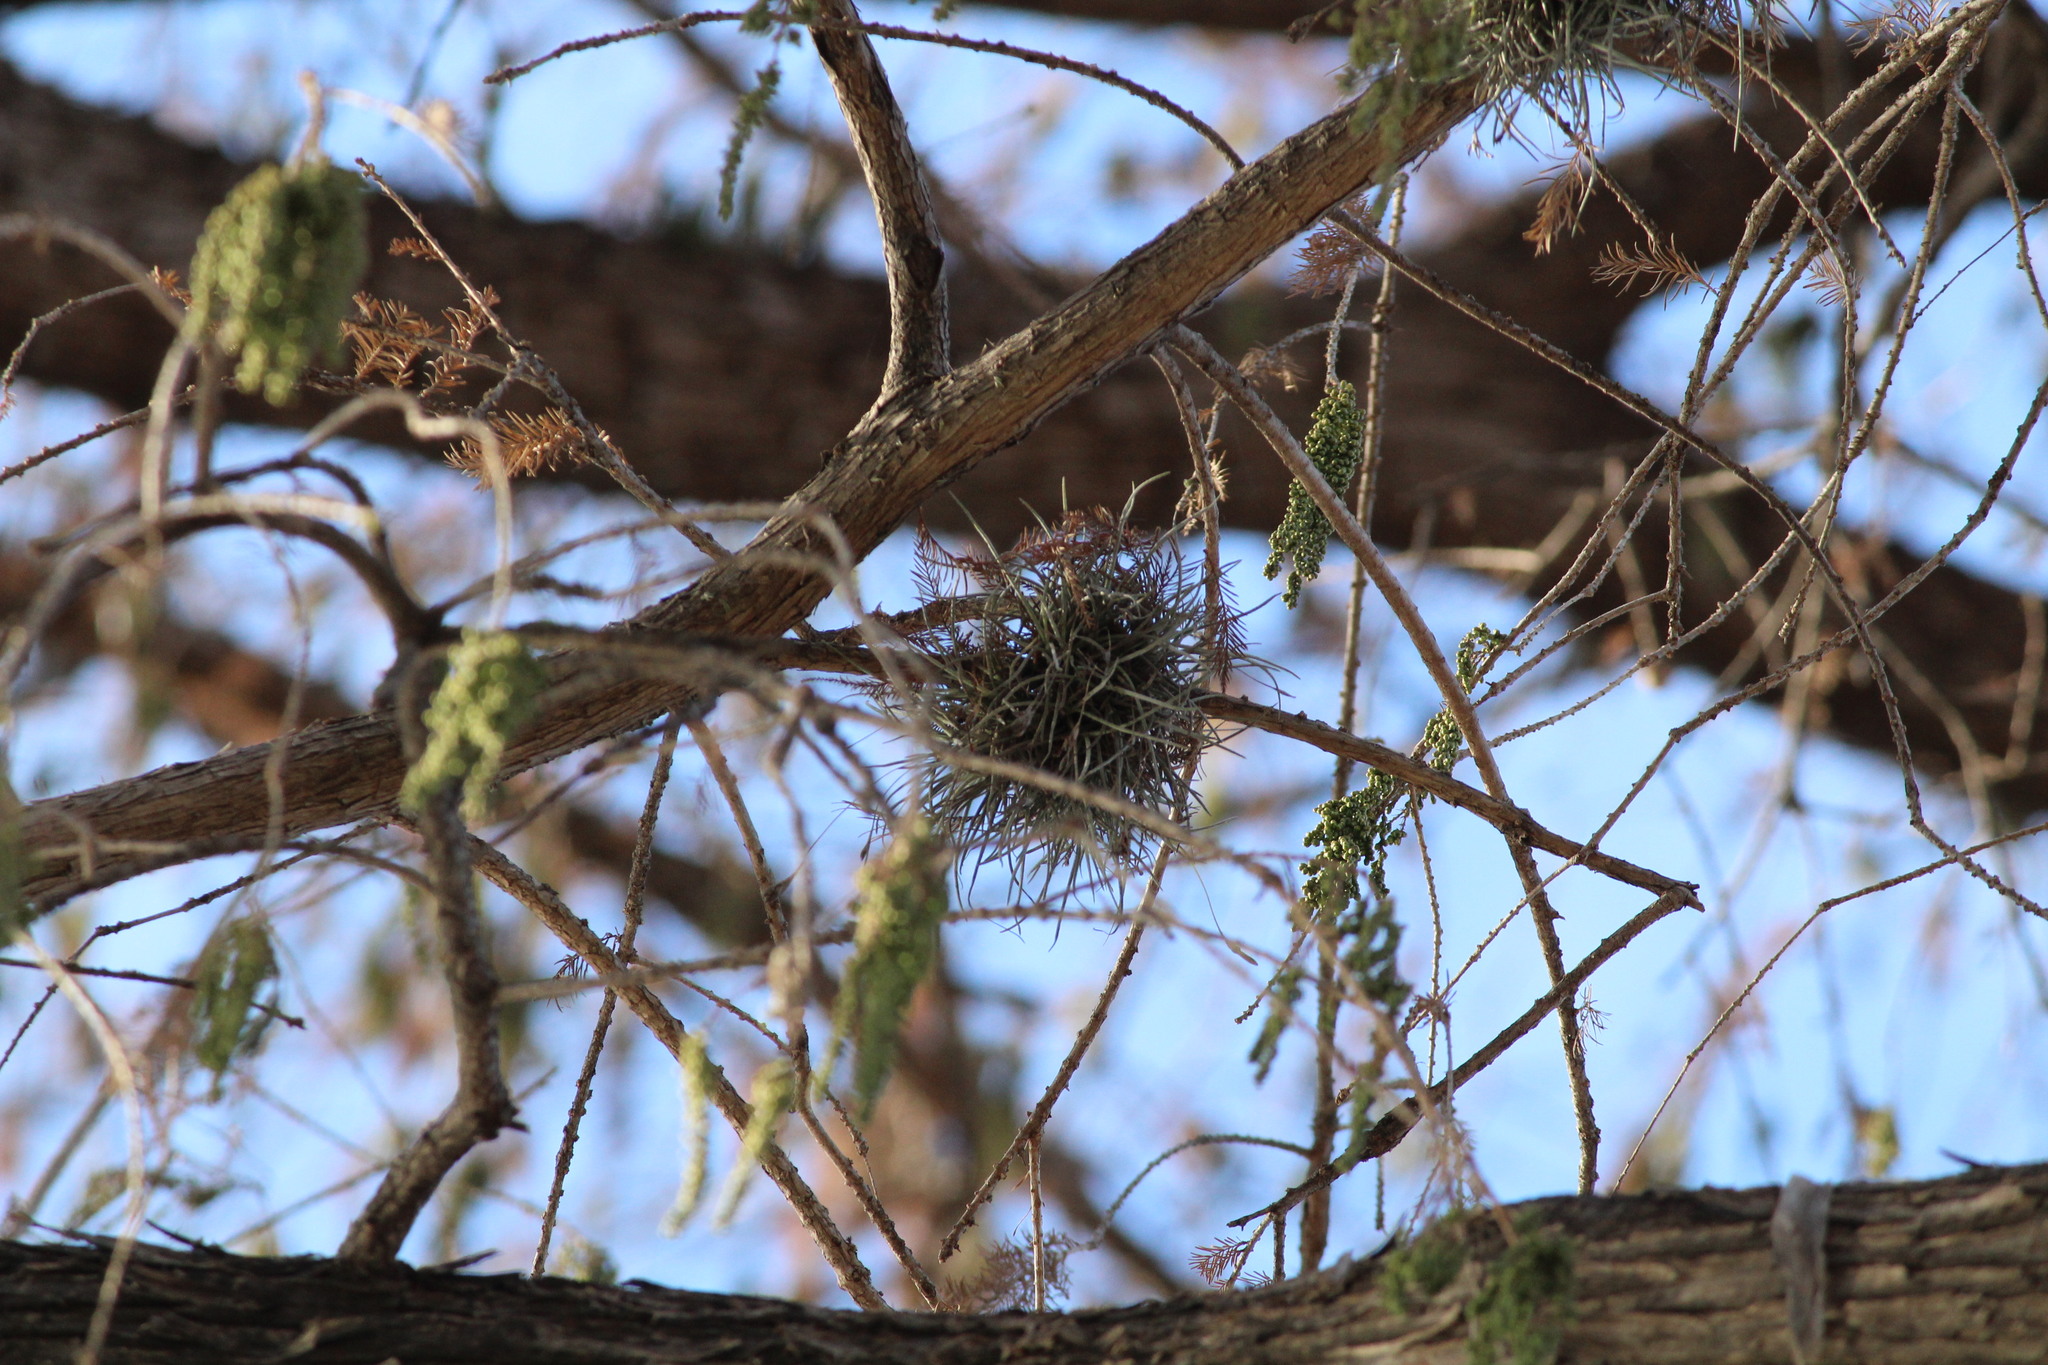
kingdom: Plantae
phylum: Tracheophyta
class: Liliopsida
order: Poales
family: Bromeliaceae
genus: Tillandsia
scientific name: Tillandsia recurvata
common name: Small ballmoss
